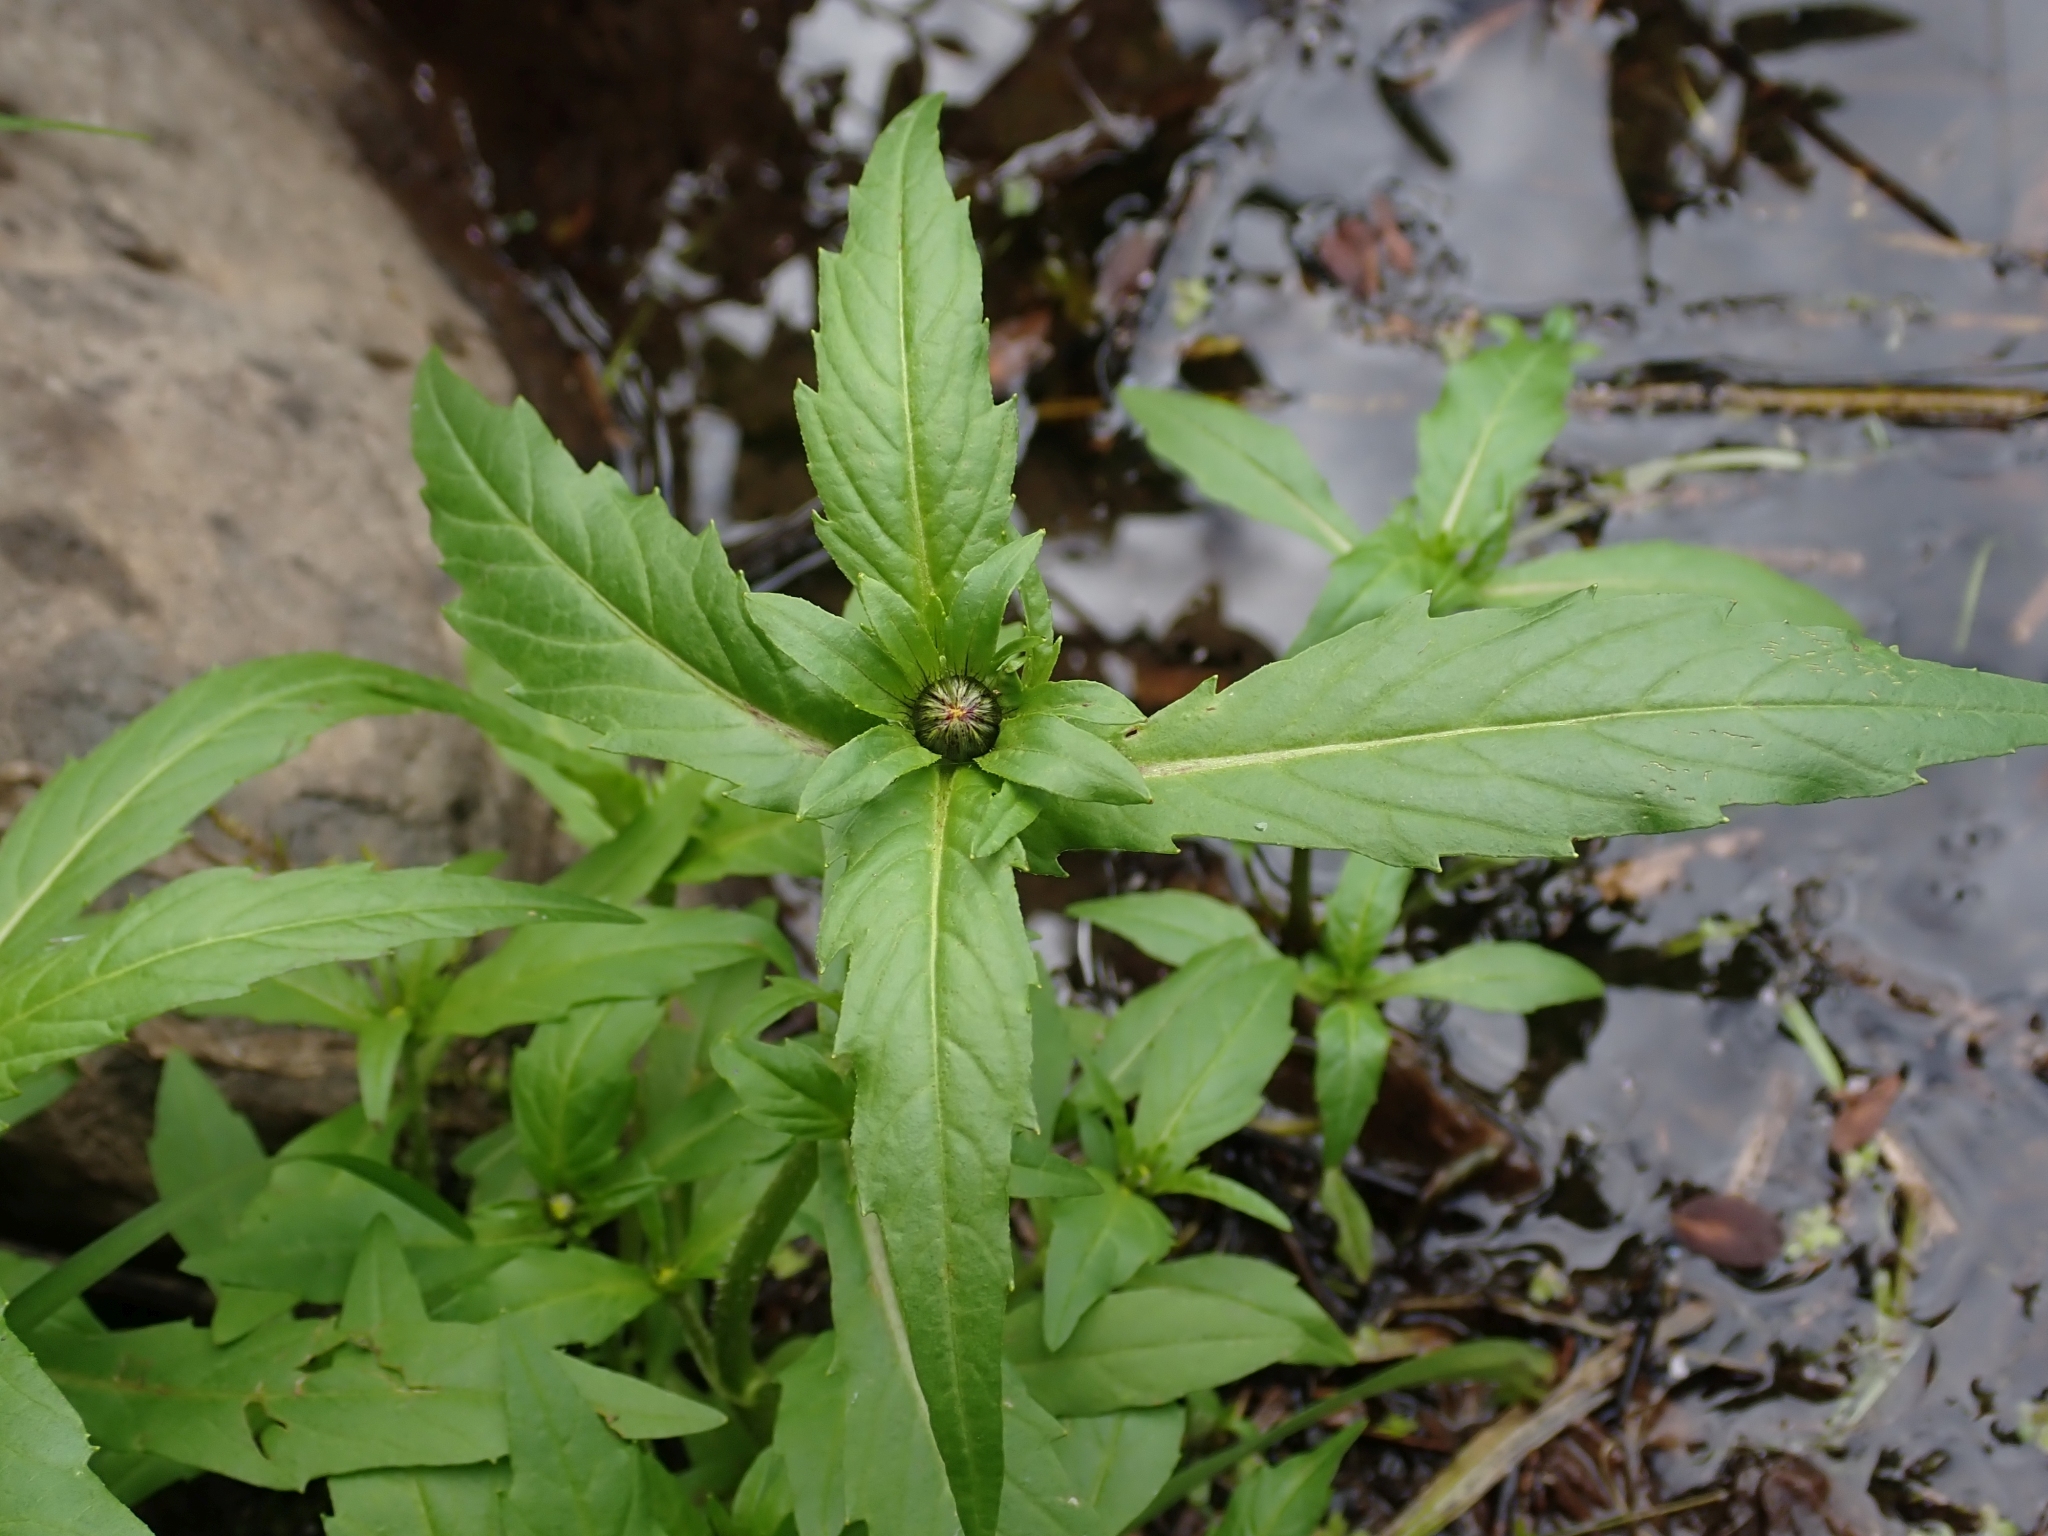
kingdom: Plantae
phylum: Tracheophyta
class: Magnoliopsida
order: Asterales
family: Asteraceae
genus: Bidens
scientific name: Bidens cernua
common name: Nodding bur-marigold
